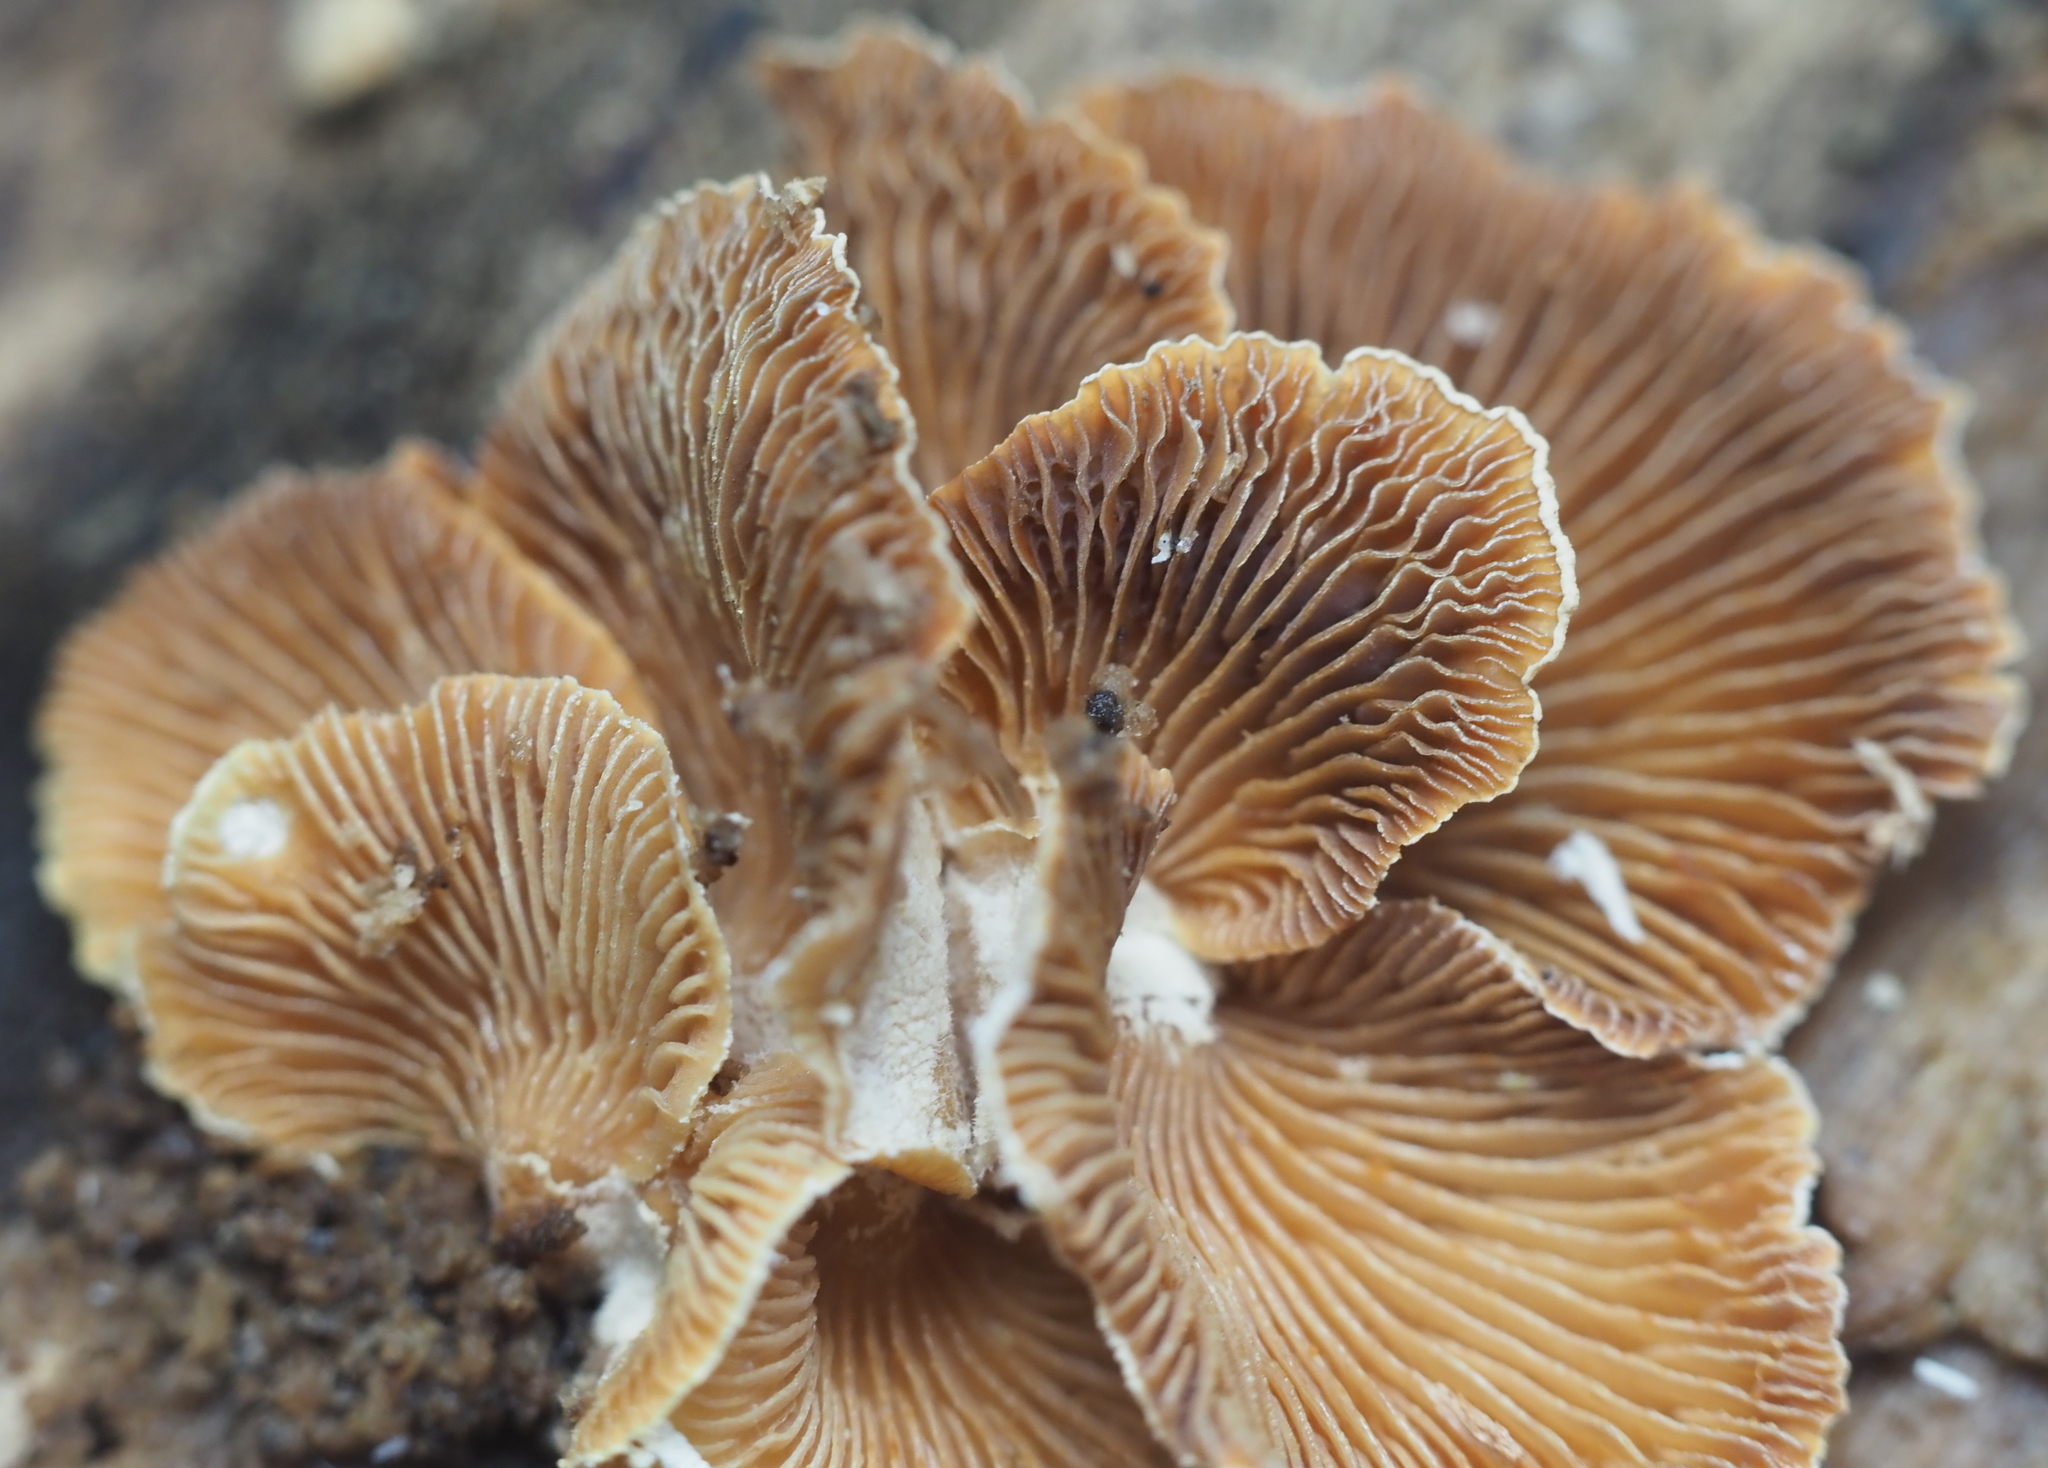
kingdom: Fungi
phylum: Basidiomycota
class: Agaricomycetes
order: Agaricales
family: Mycenaceae
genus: Panellus
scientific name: Panellus stipticus
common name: Bitter oysterling
